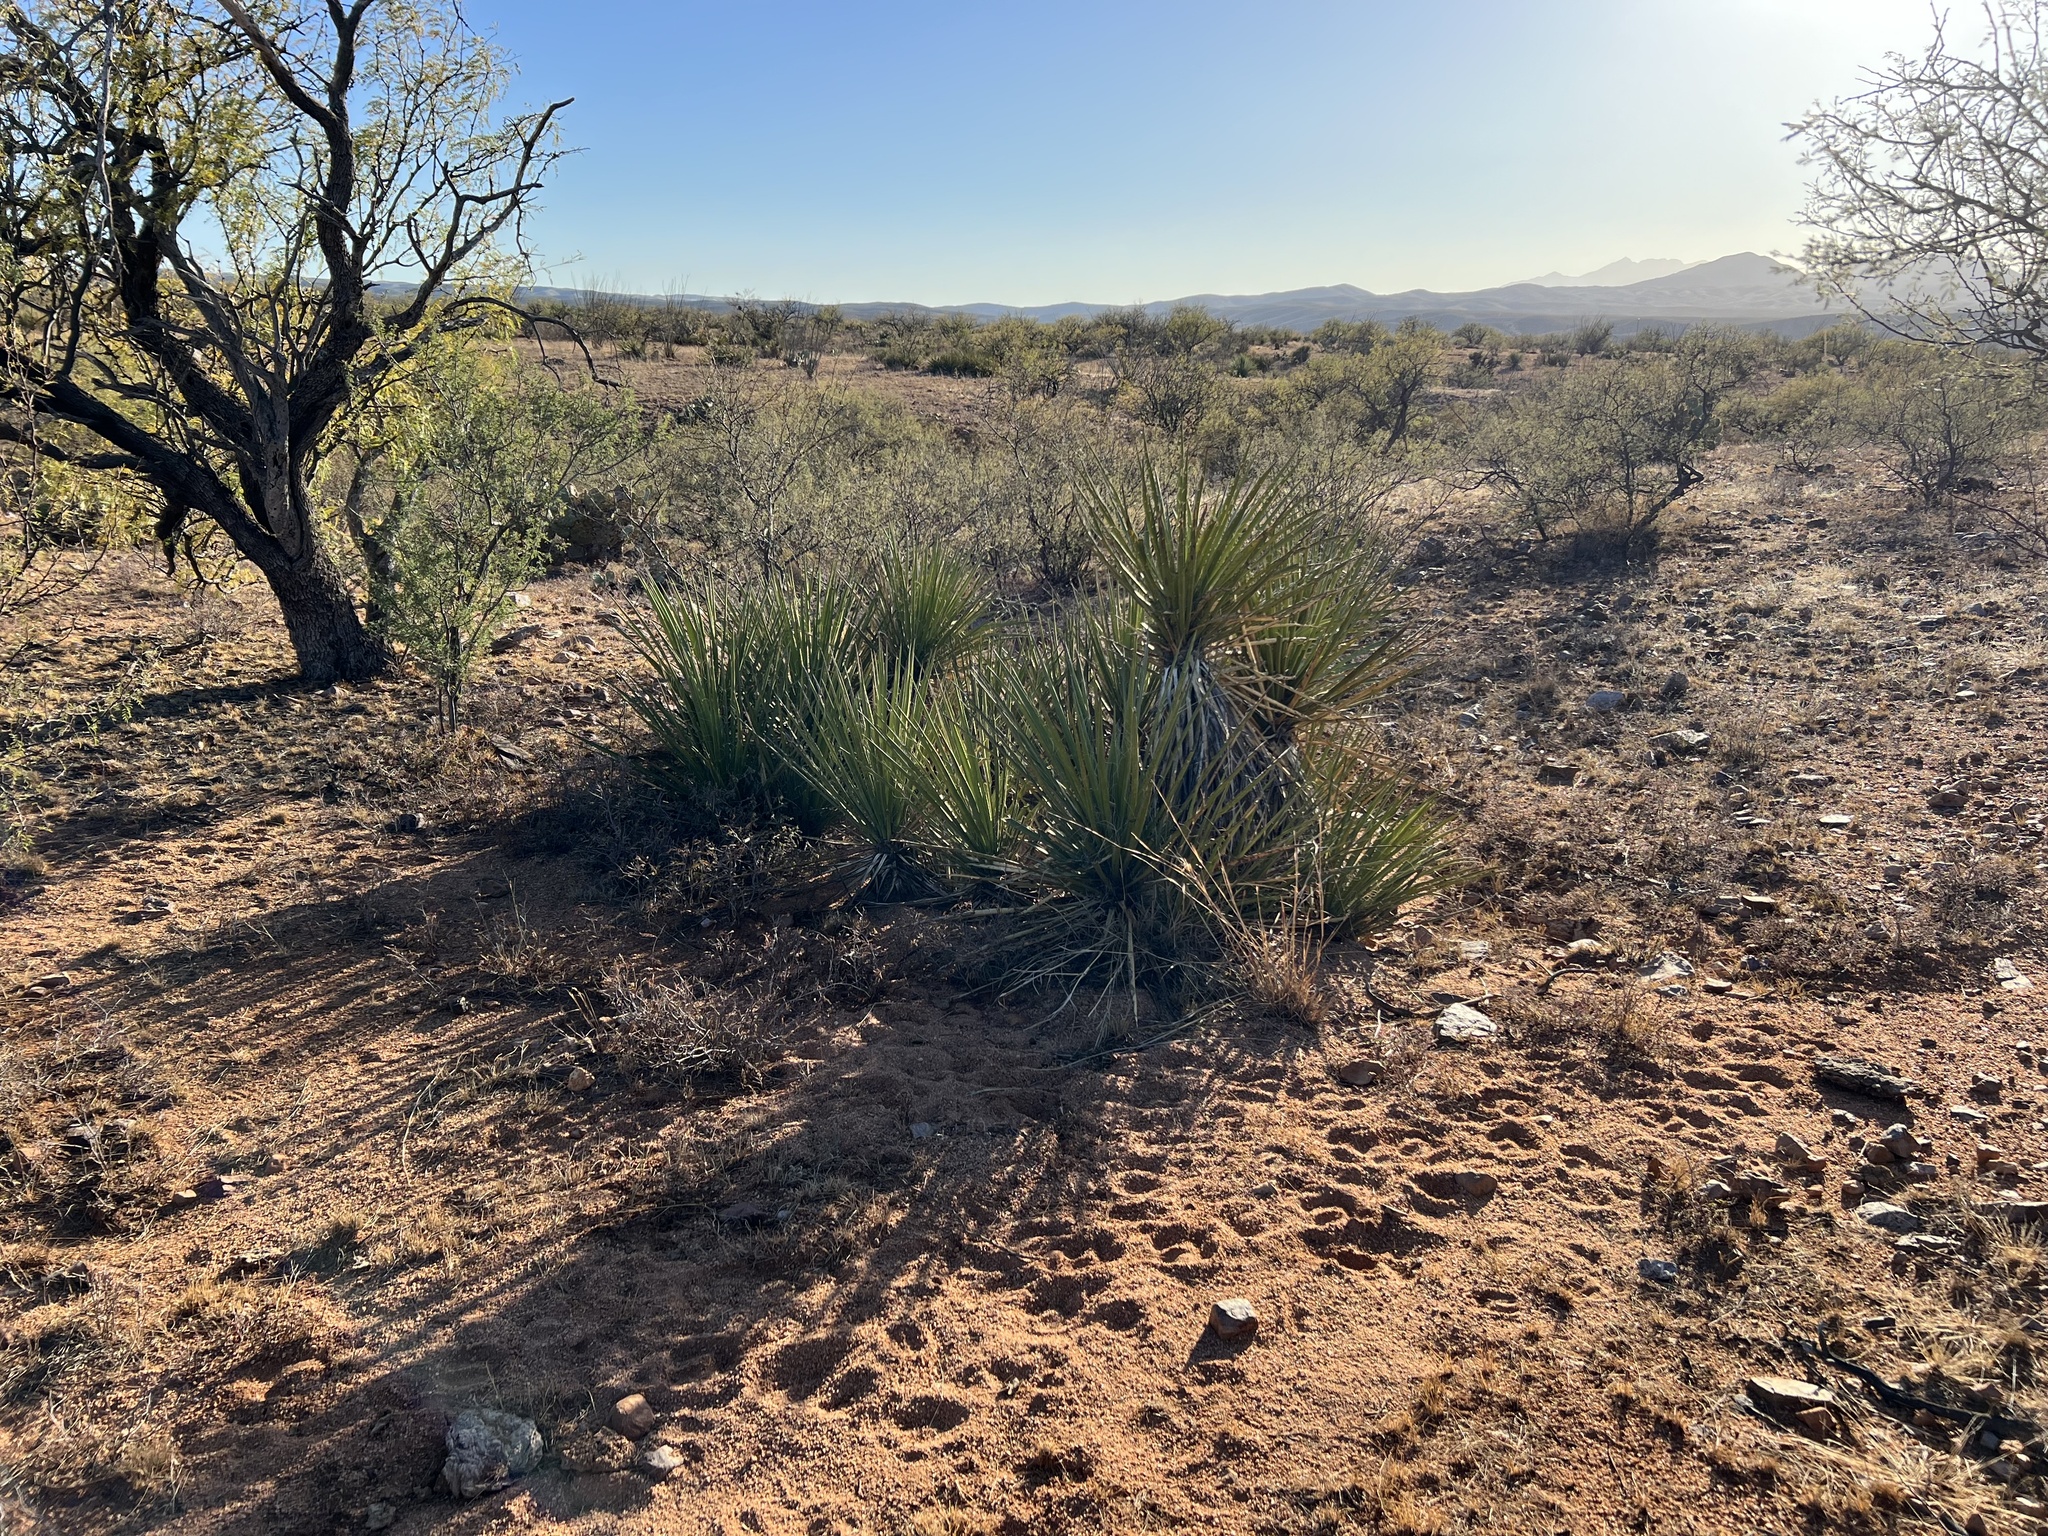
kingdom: Plantae
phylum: Tracheophyta
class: Liliopsida
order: Asparagales
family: Asparagaceae
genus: Yucca
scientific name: Yucca baccata
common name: Banana yucca
